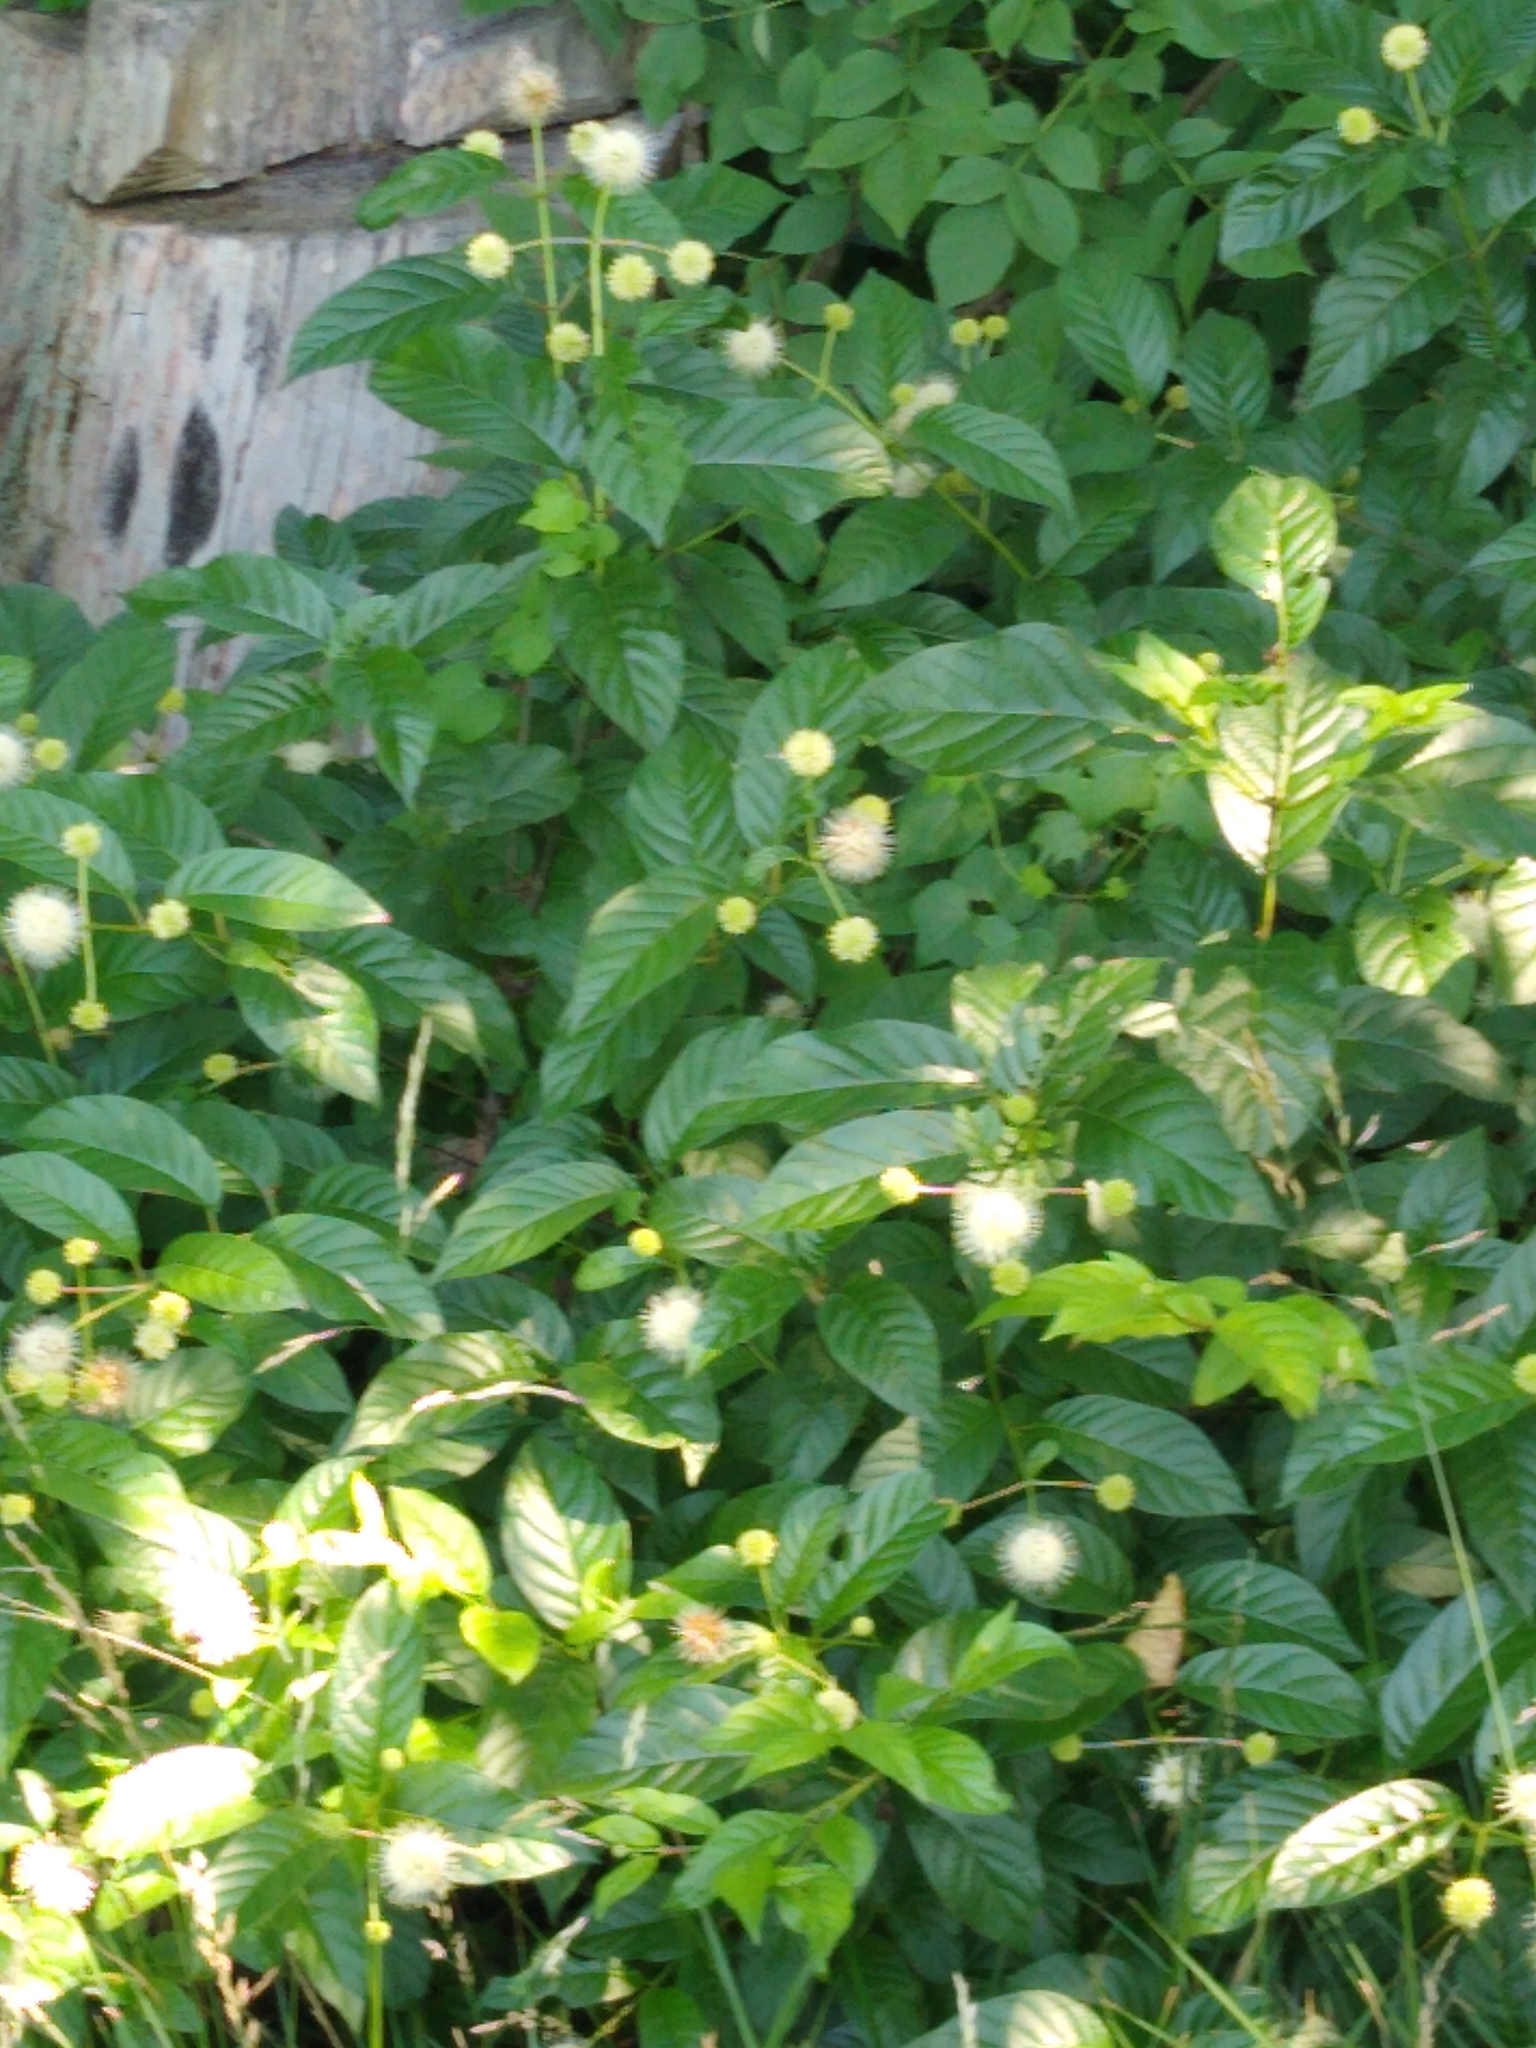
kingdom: Plantae
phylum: Tracheophyta
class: Magnoliopsida
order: Gentianales
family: Rubiaceae
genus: Cephalanthus
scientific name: Cephalanthus occidentalis
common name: Button-willow
